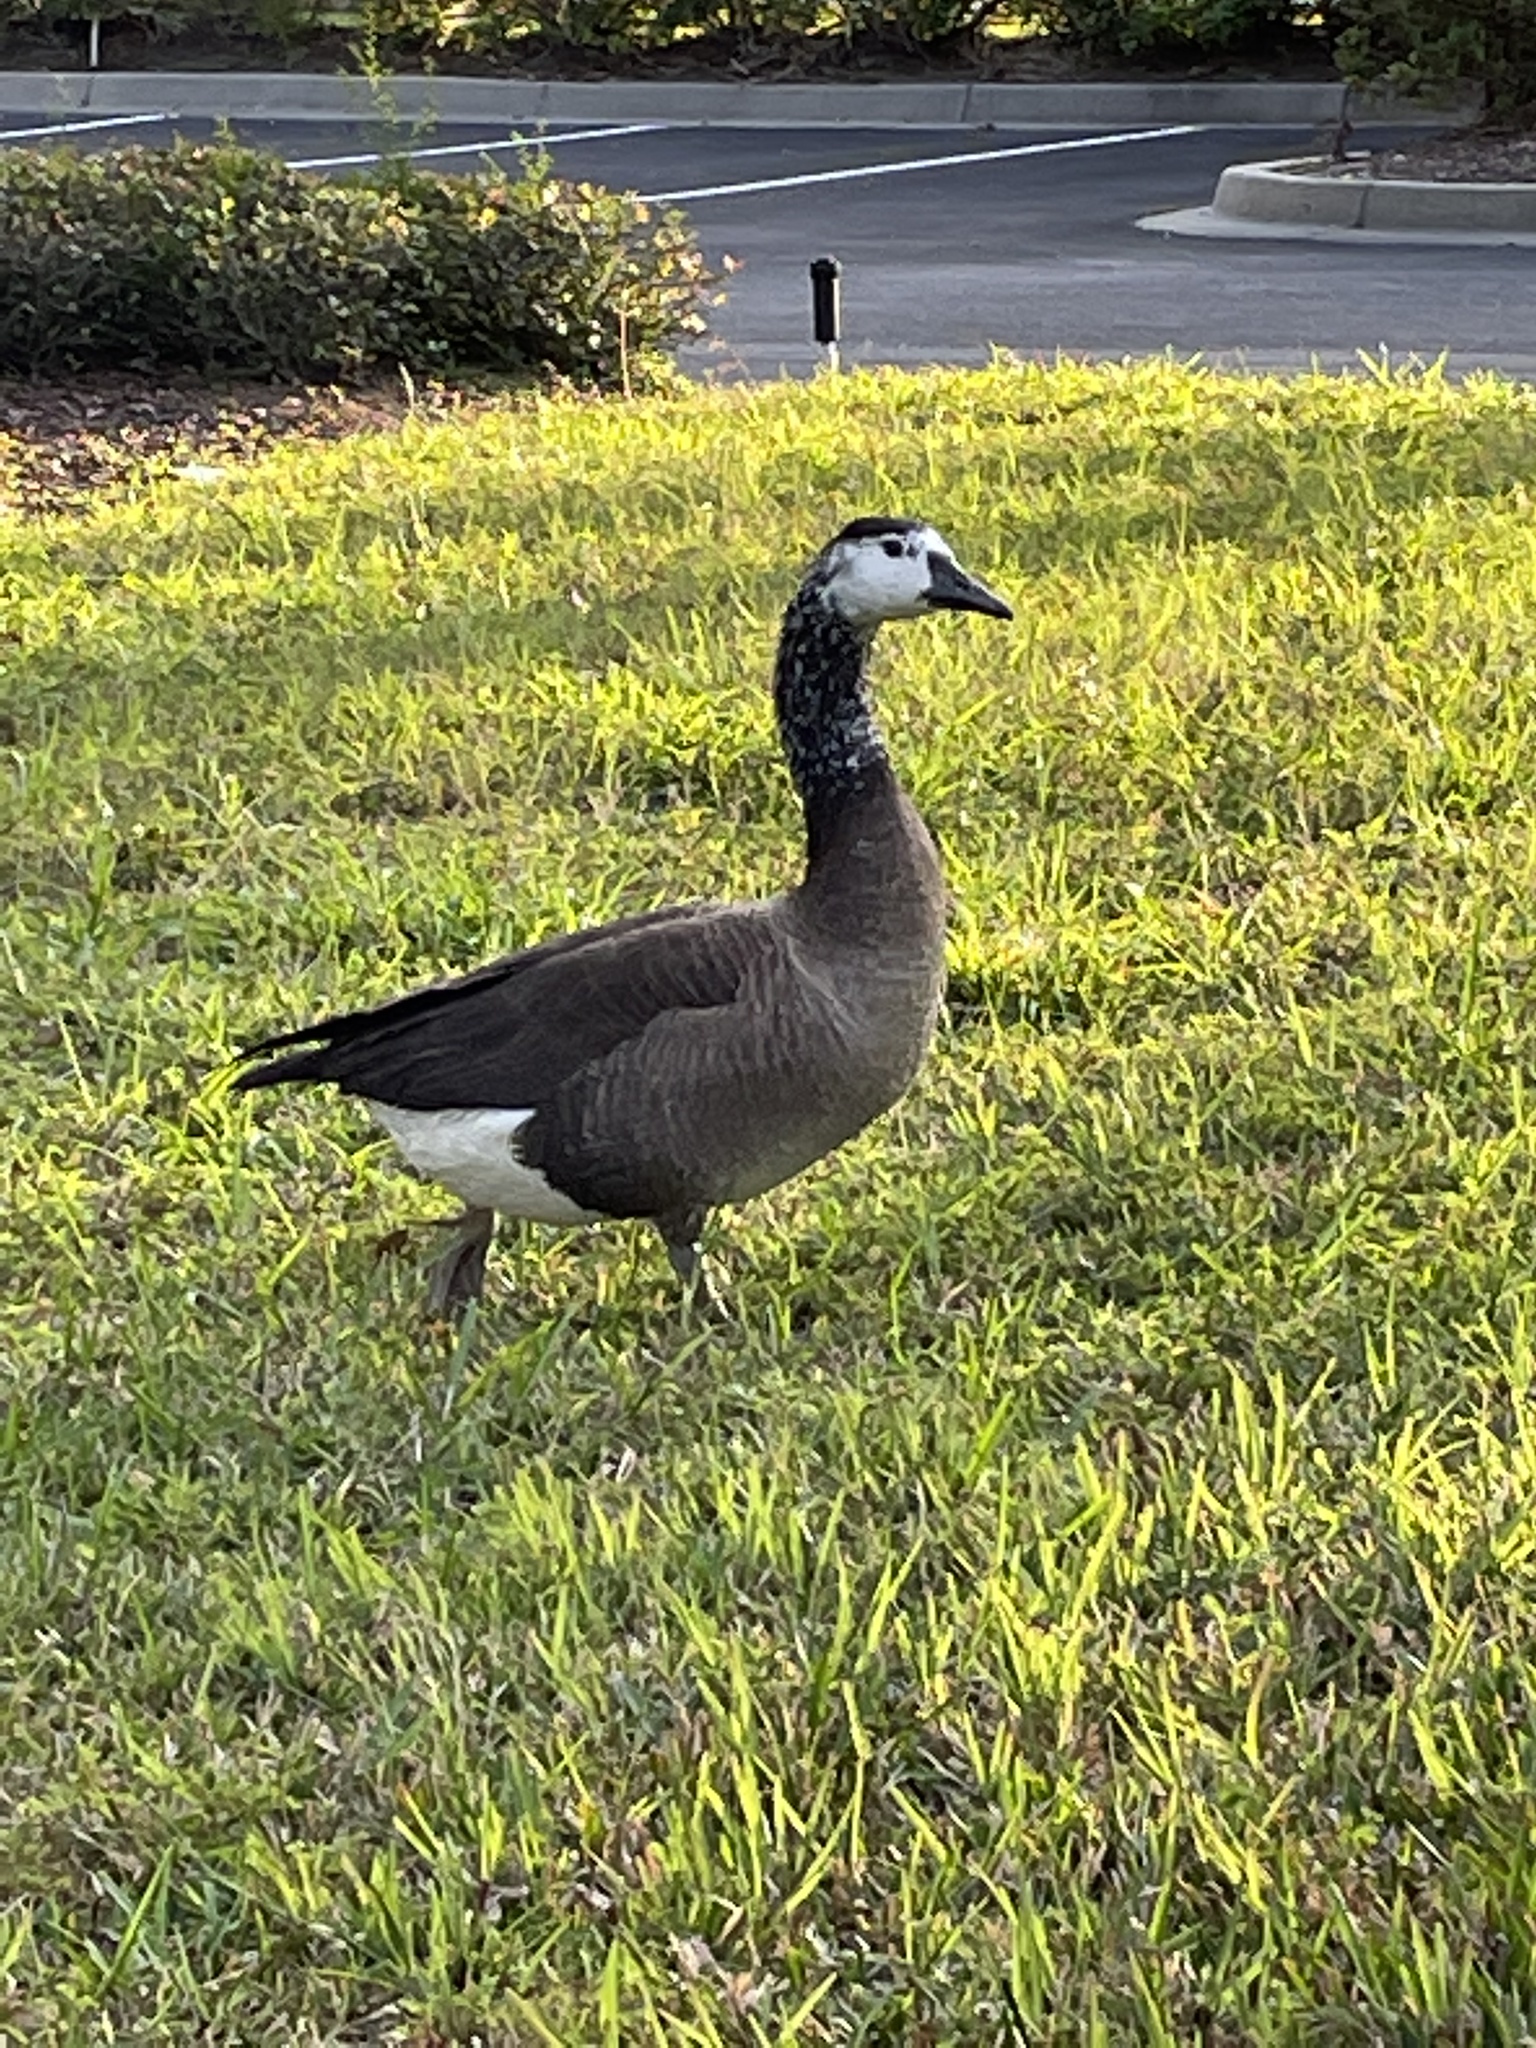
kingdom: Animalia
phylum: Chordata
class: Aves
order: Anseriformes
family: Anatidae
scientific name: Anatidae
